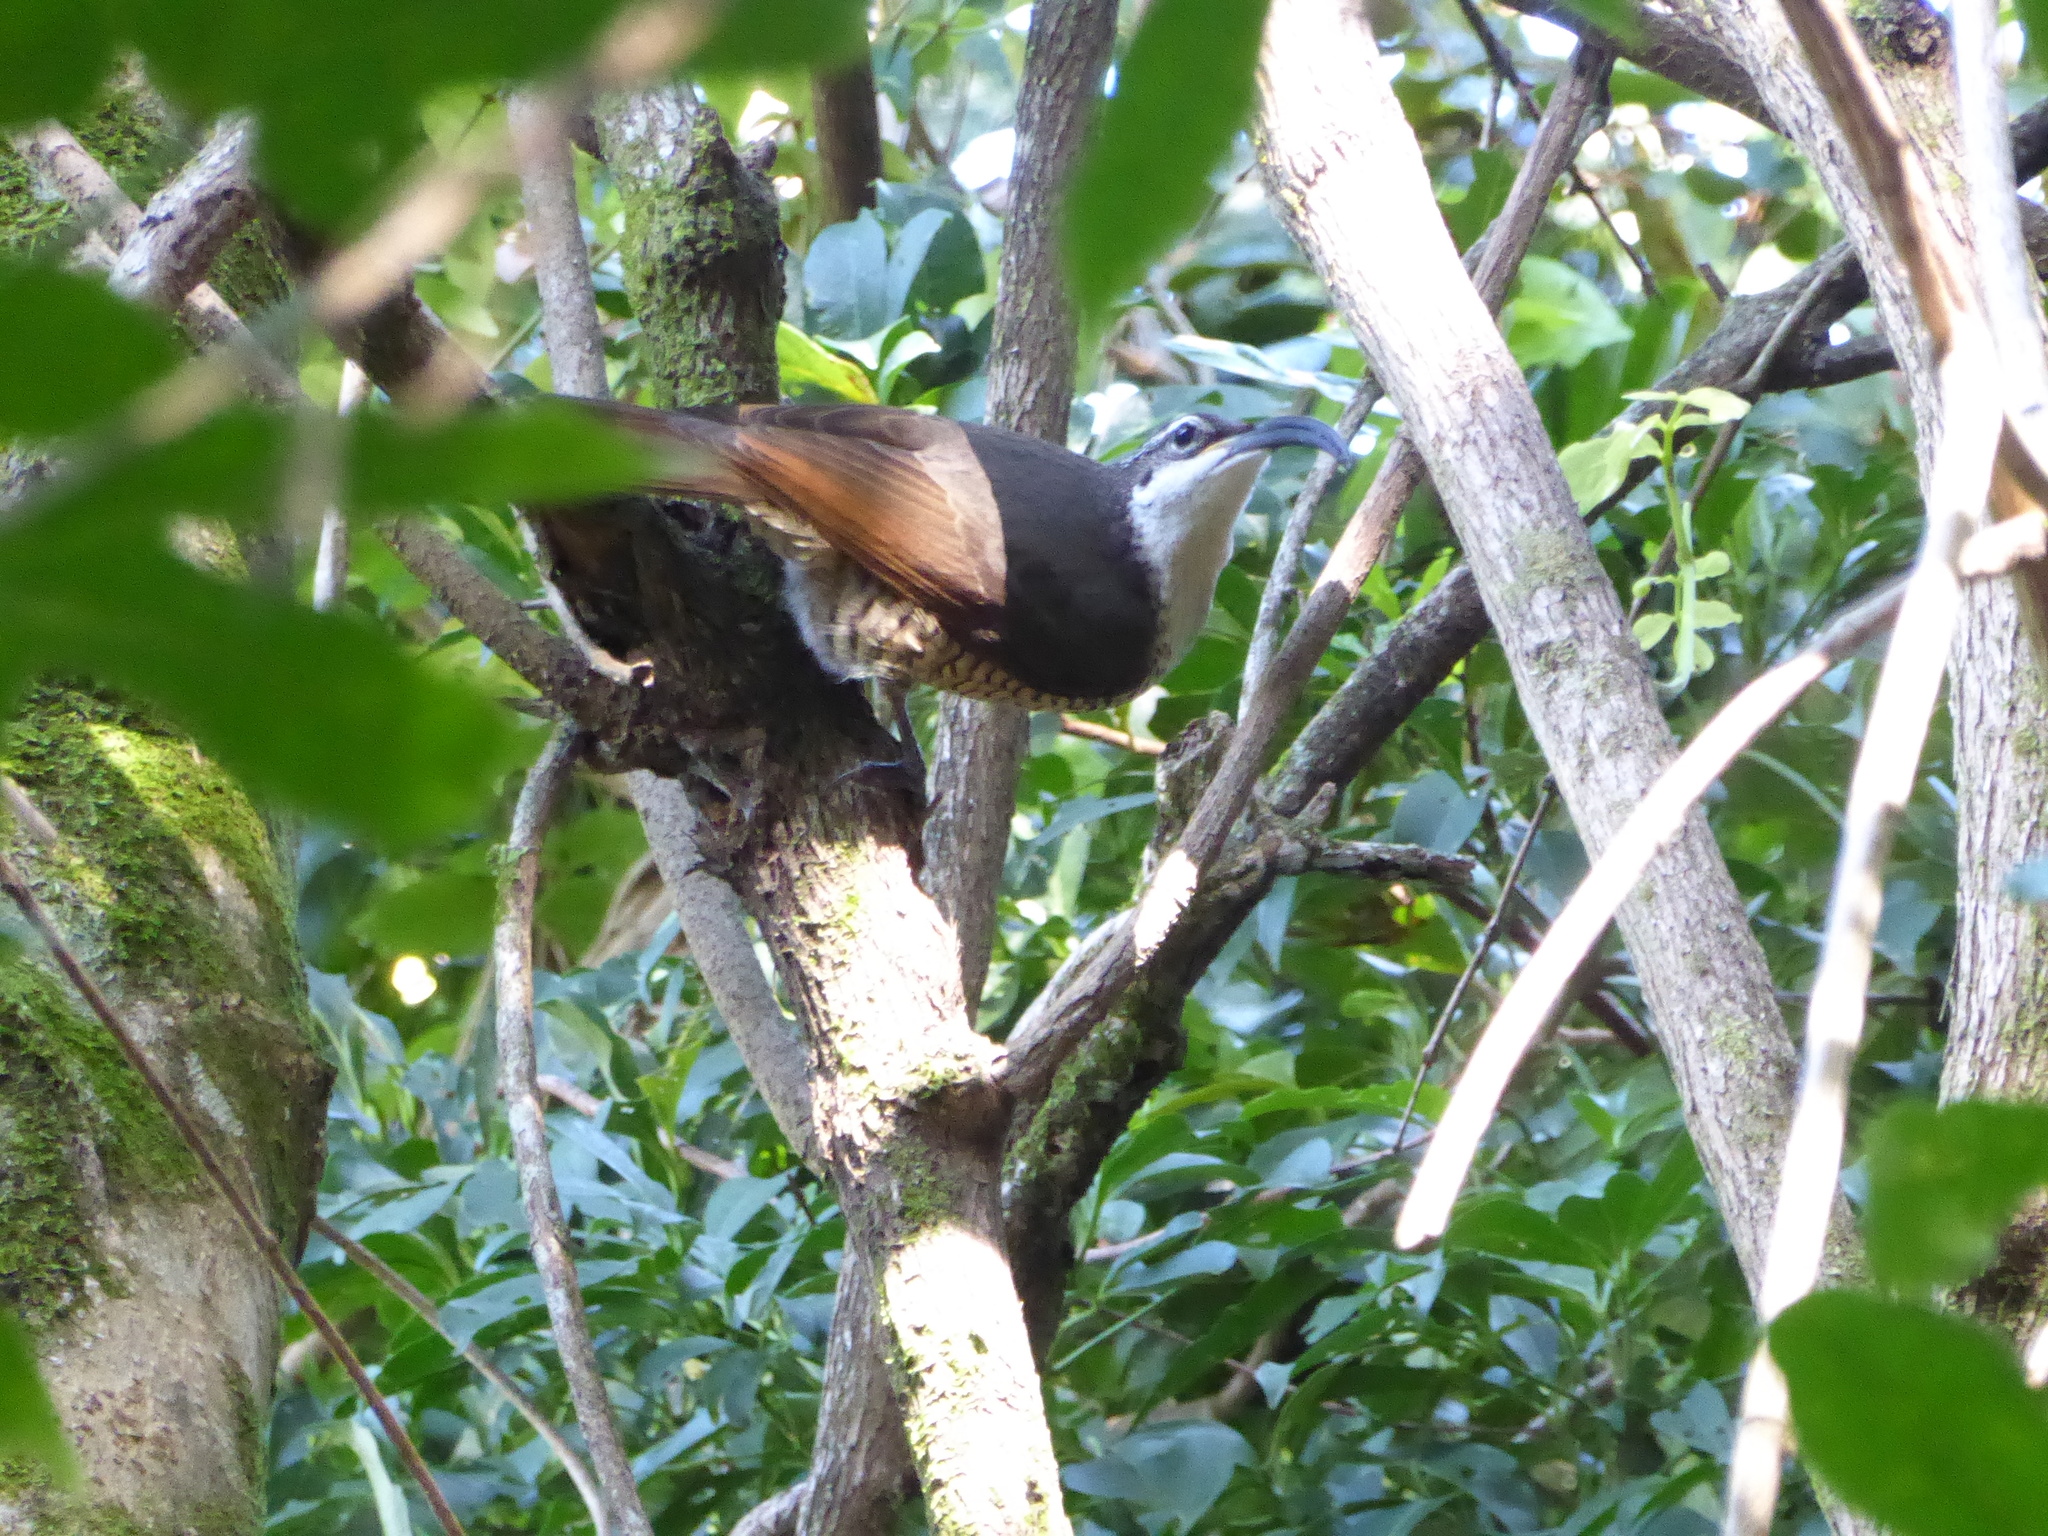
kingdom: Animalia
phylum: Chordata
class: Aves
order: Passeriformes
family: Paradisaeidae
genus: Ptiloris
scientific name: Ptiloris paradiseus
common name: Paradise riflebird
